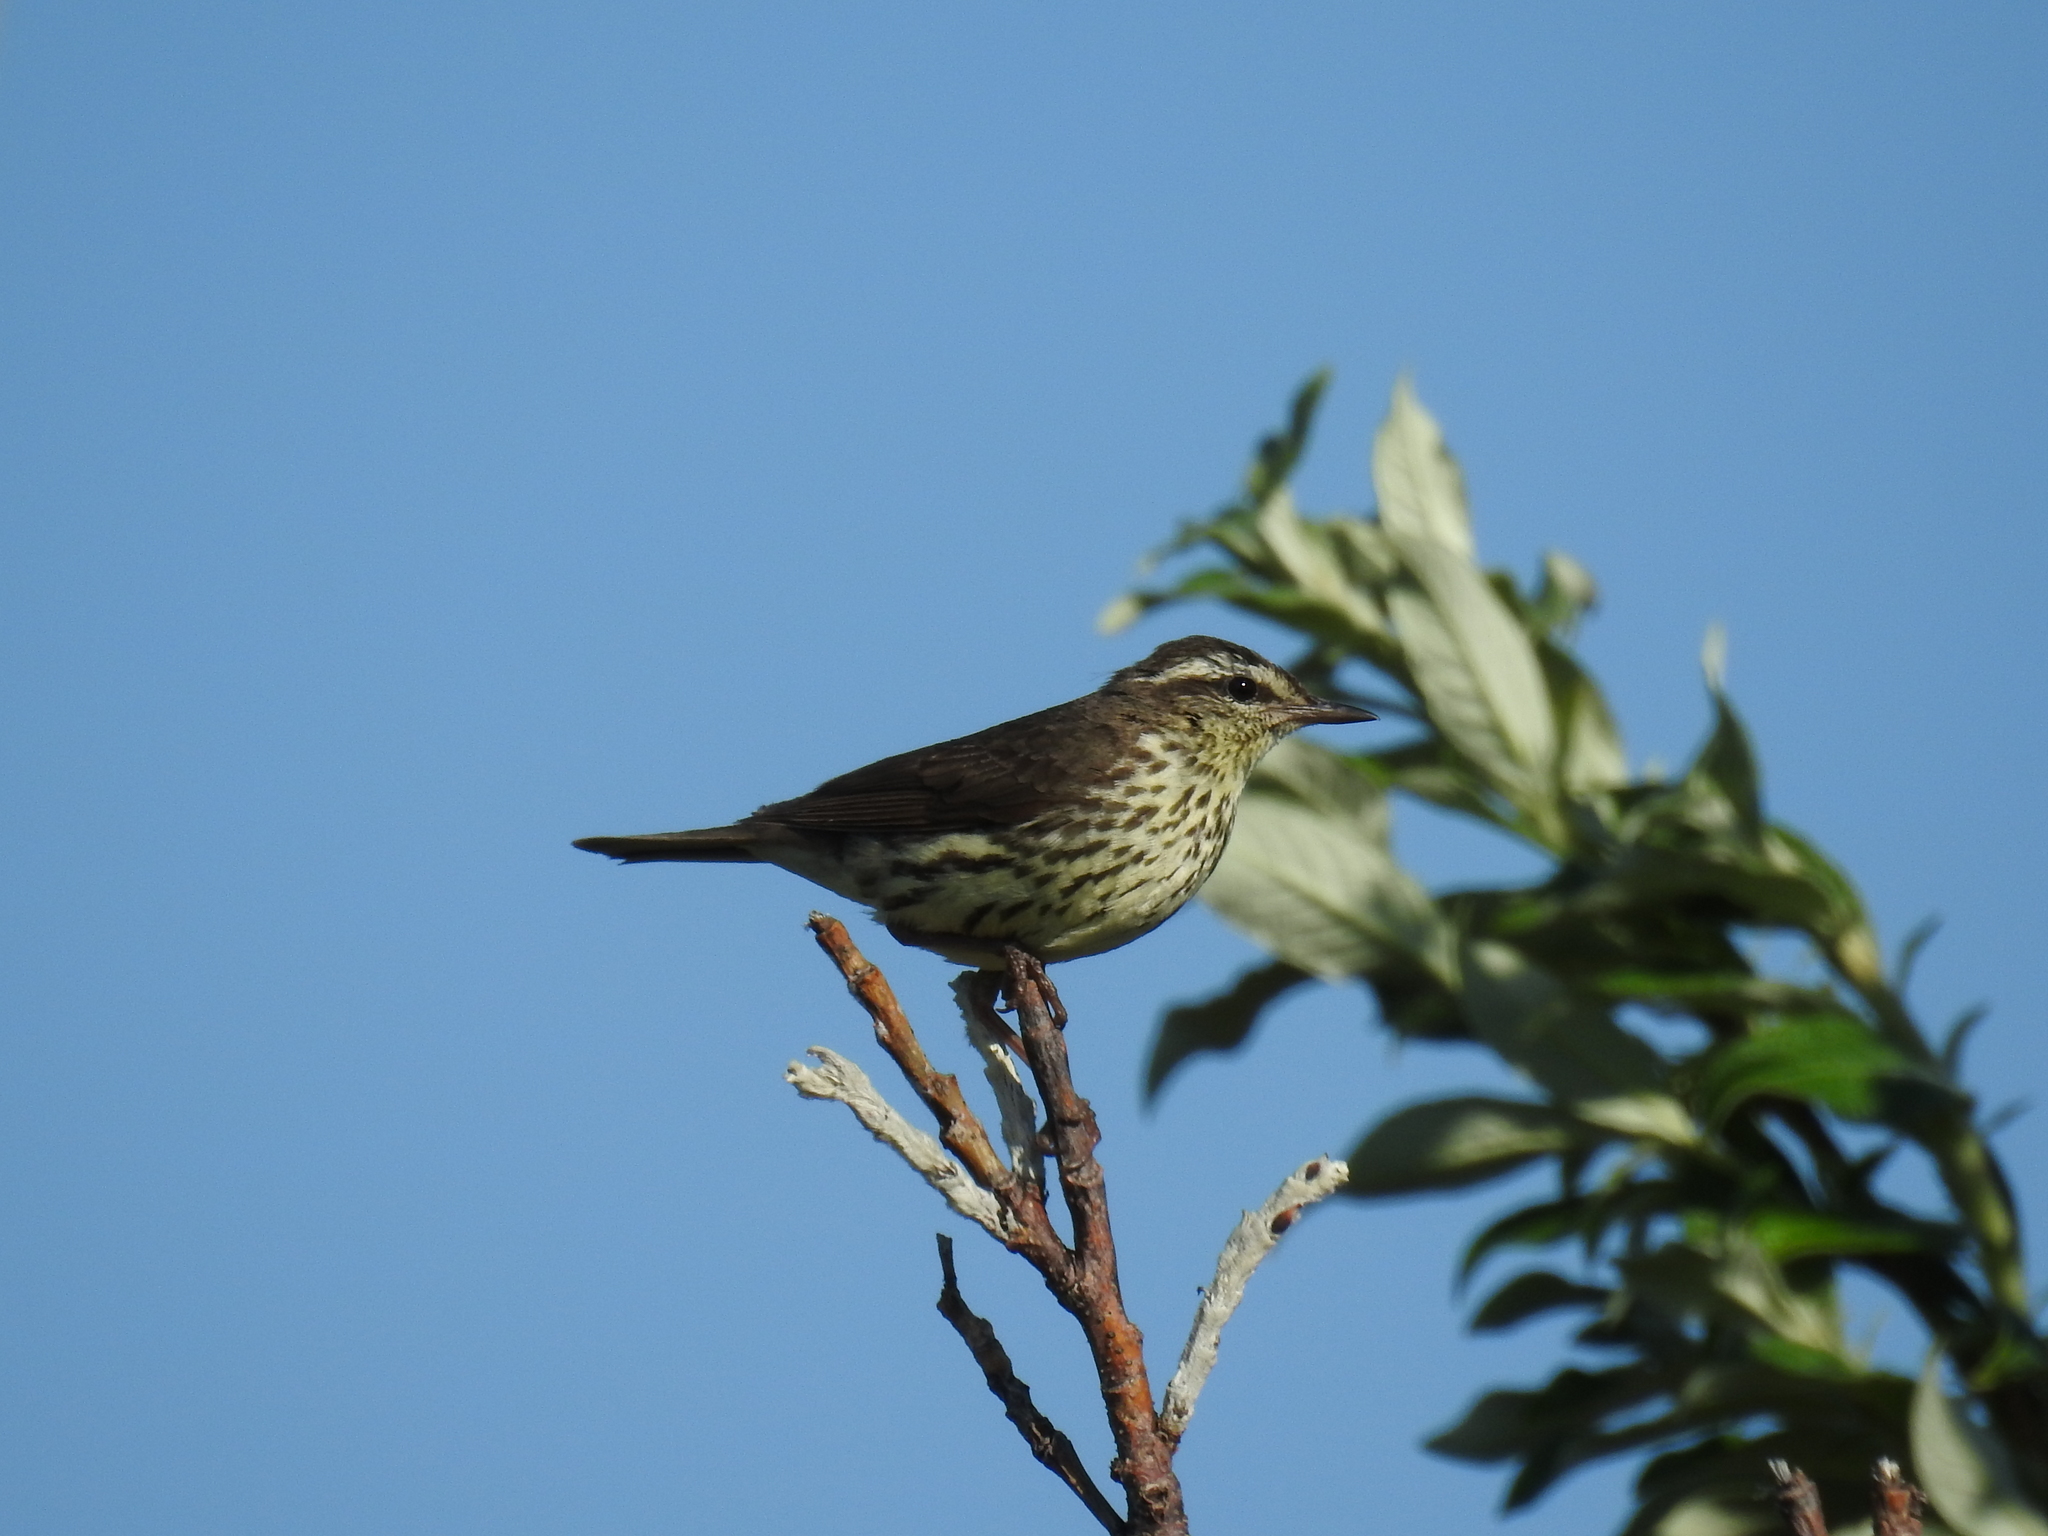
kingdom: Animalia
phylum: Chordata
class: Aves
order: Passeriformes
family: Parulidae
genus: Parkesia
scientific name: Parkesia noveboracensis
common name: Northern waterthrush
